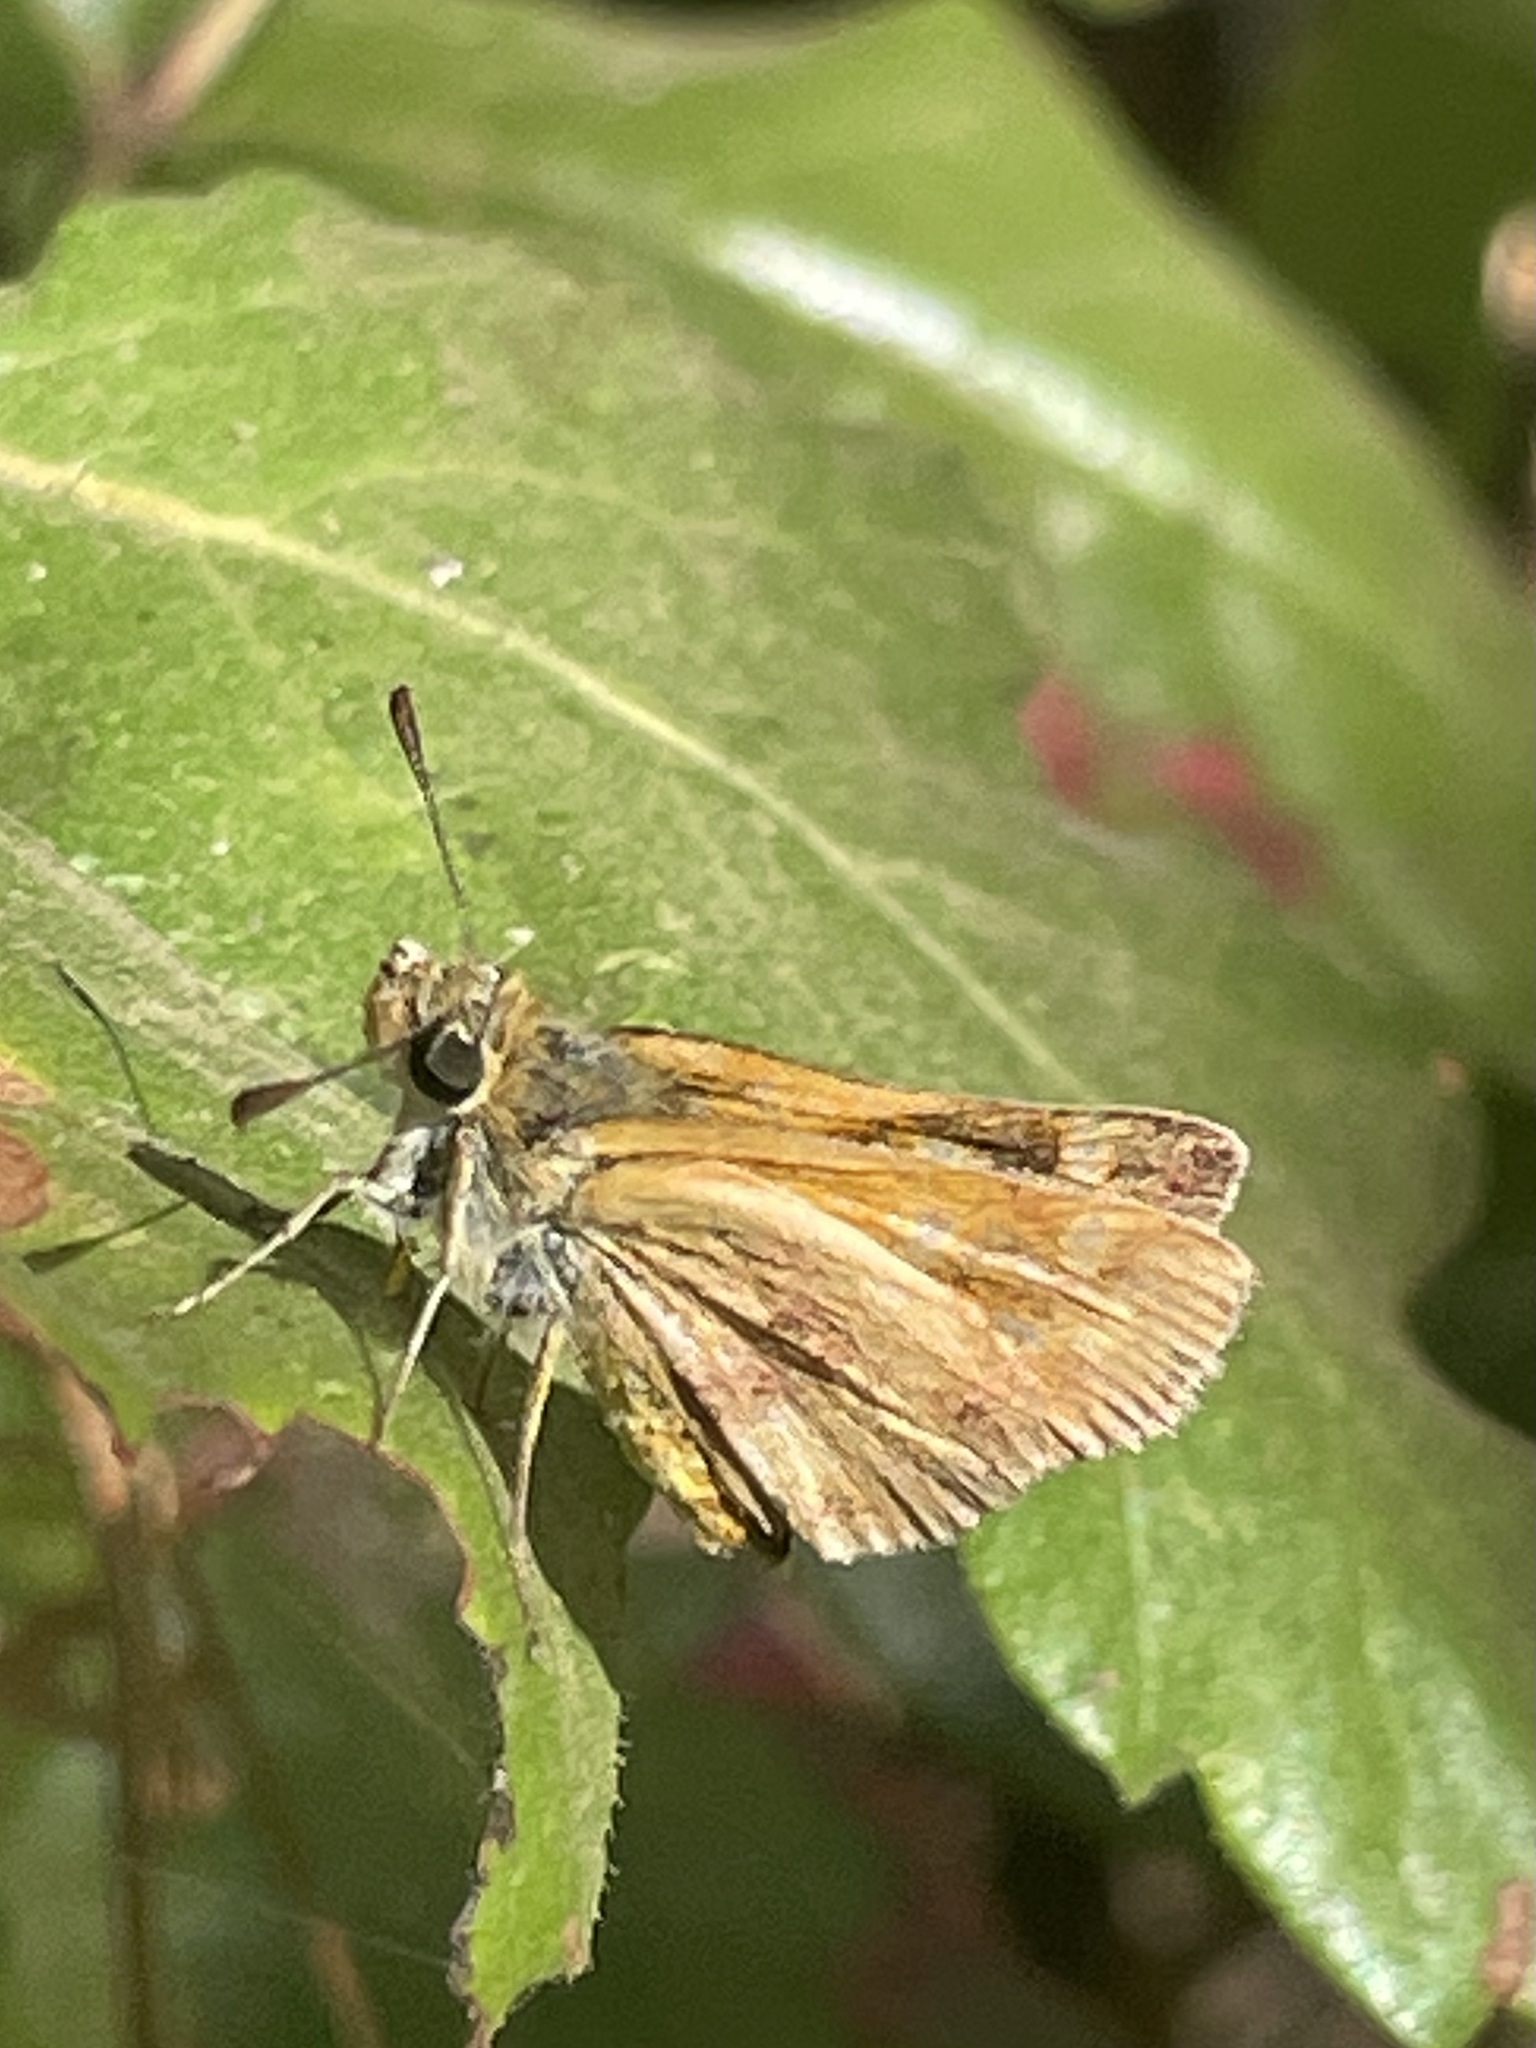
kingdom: Animalia
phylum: Arthropoda
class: Insecta
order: Lepidoptera
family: Hesperiidae
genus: Ochlodes
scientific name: Ochlodes sylvanoides
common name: Woodland skipper
